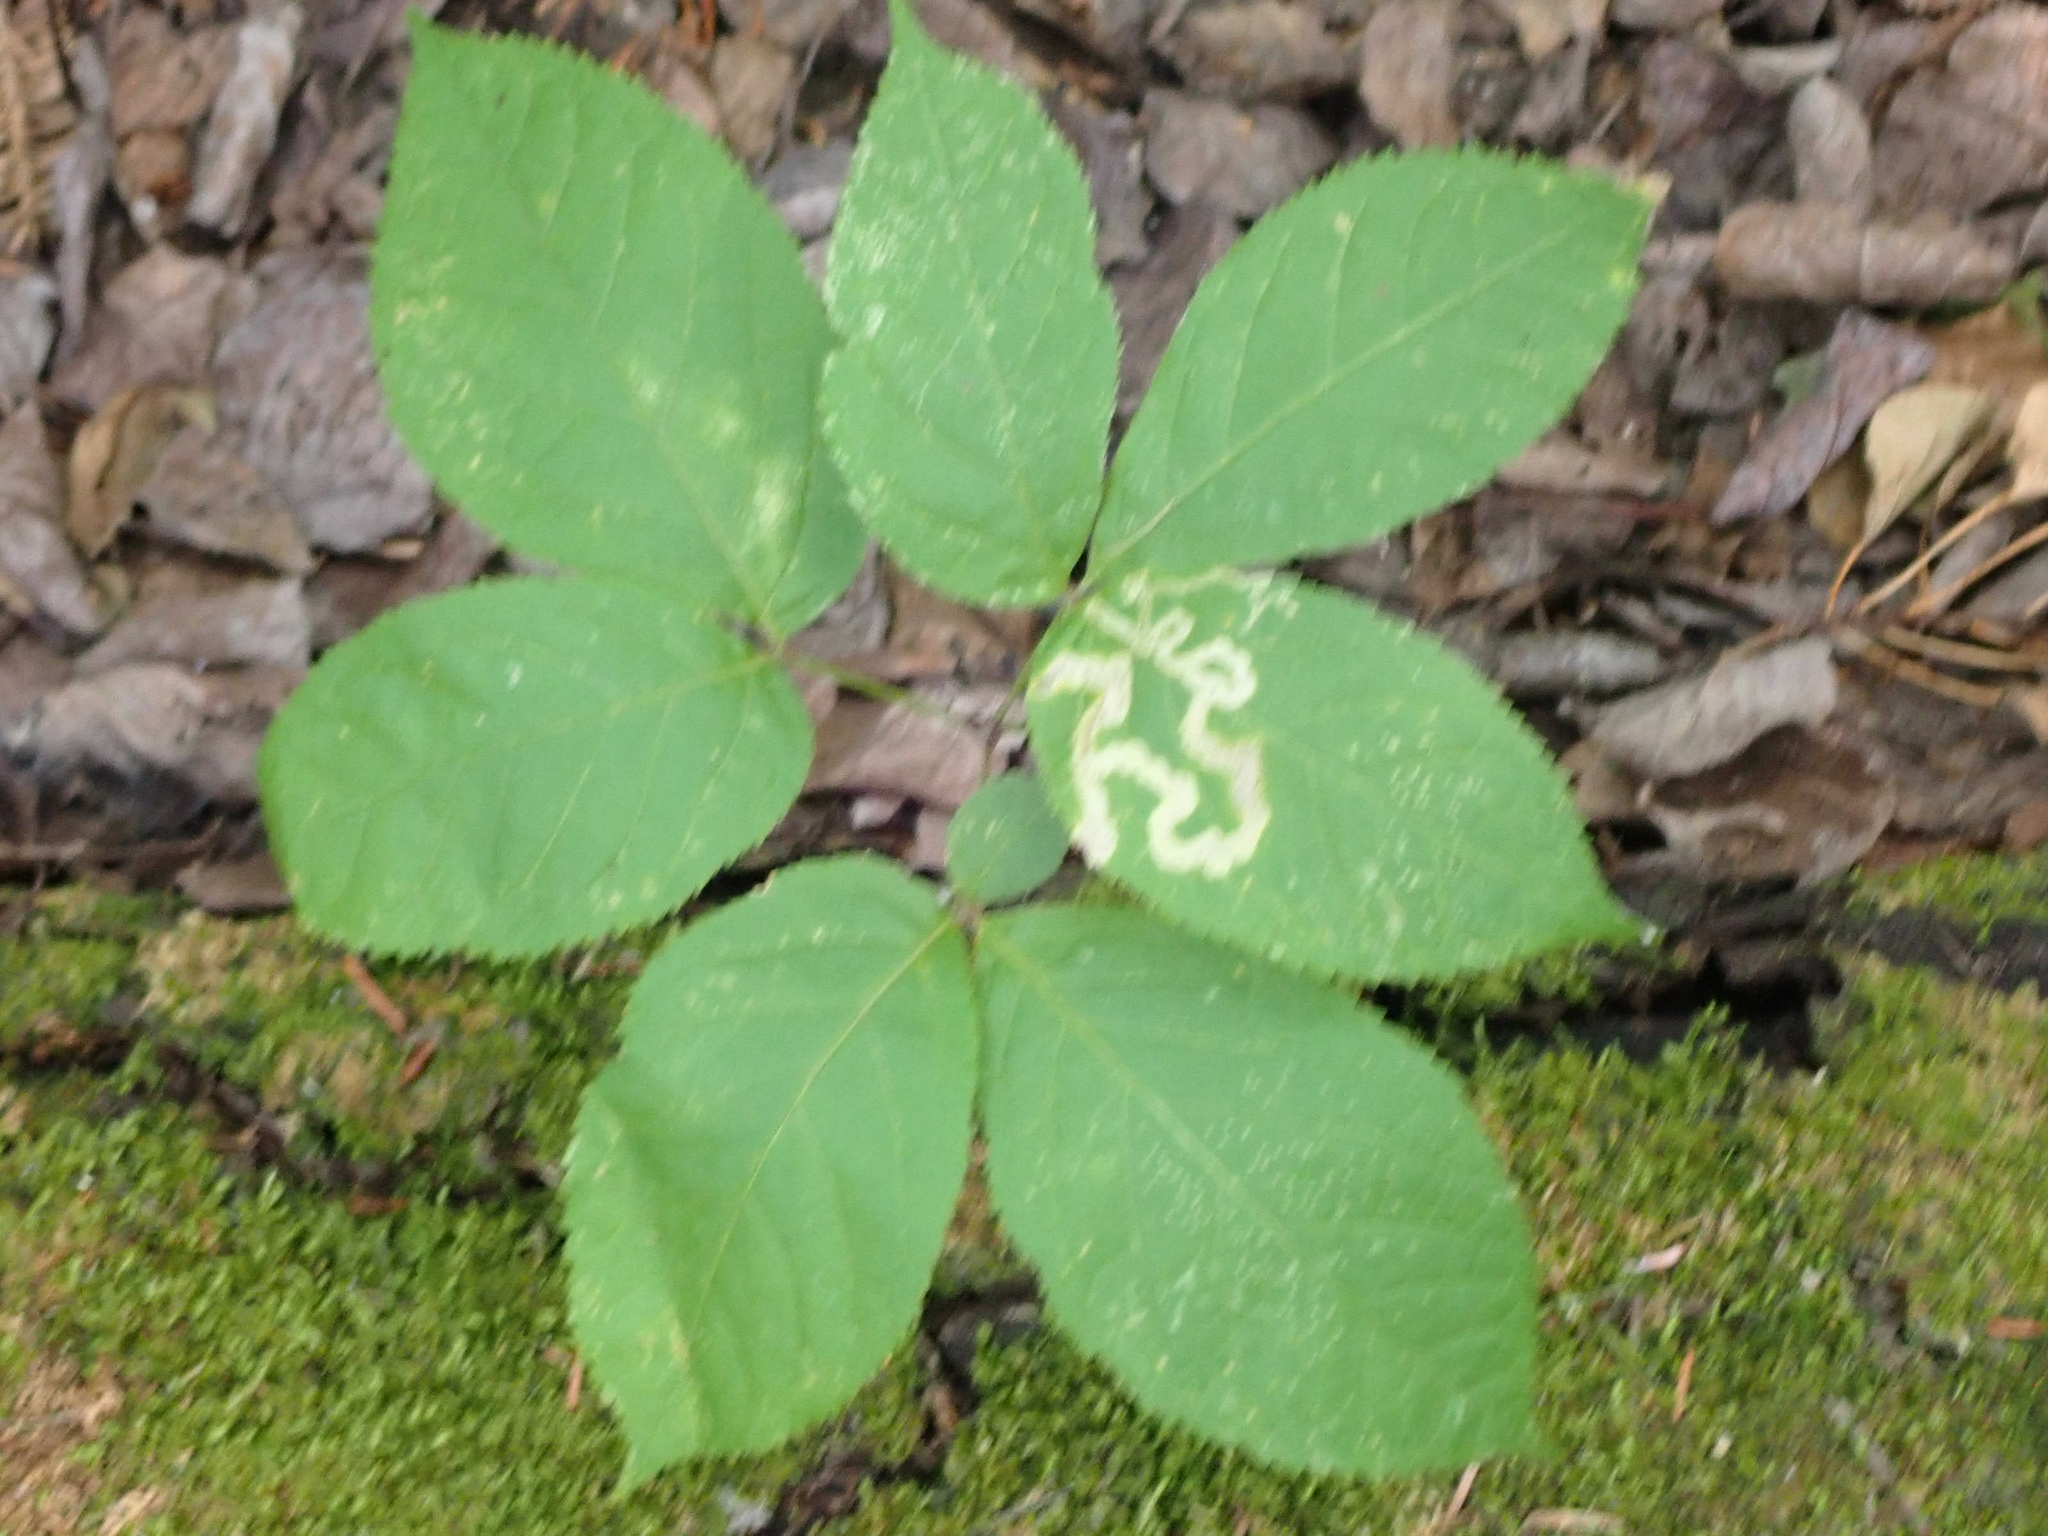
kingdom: Plantae
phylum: Tracheophyta
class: Magnoliopsida
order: Apiales
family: Araliaceae
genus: Aralia
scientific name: Aralia nudicaulis
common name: Wild sarsaparilla
